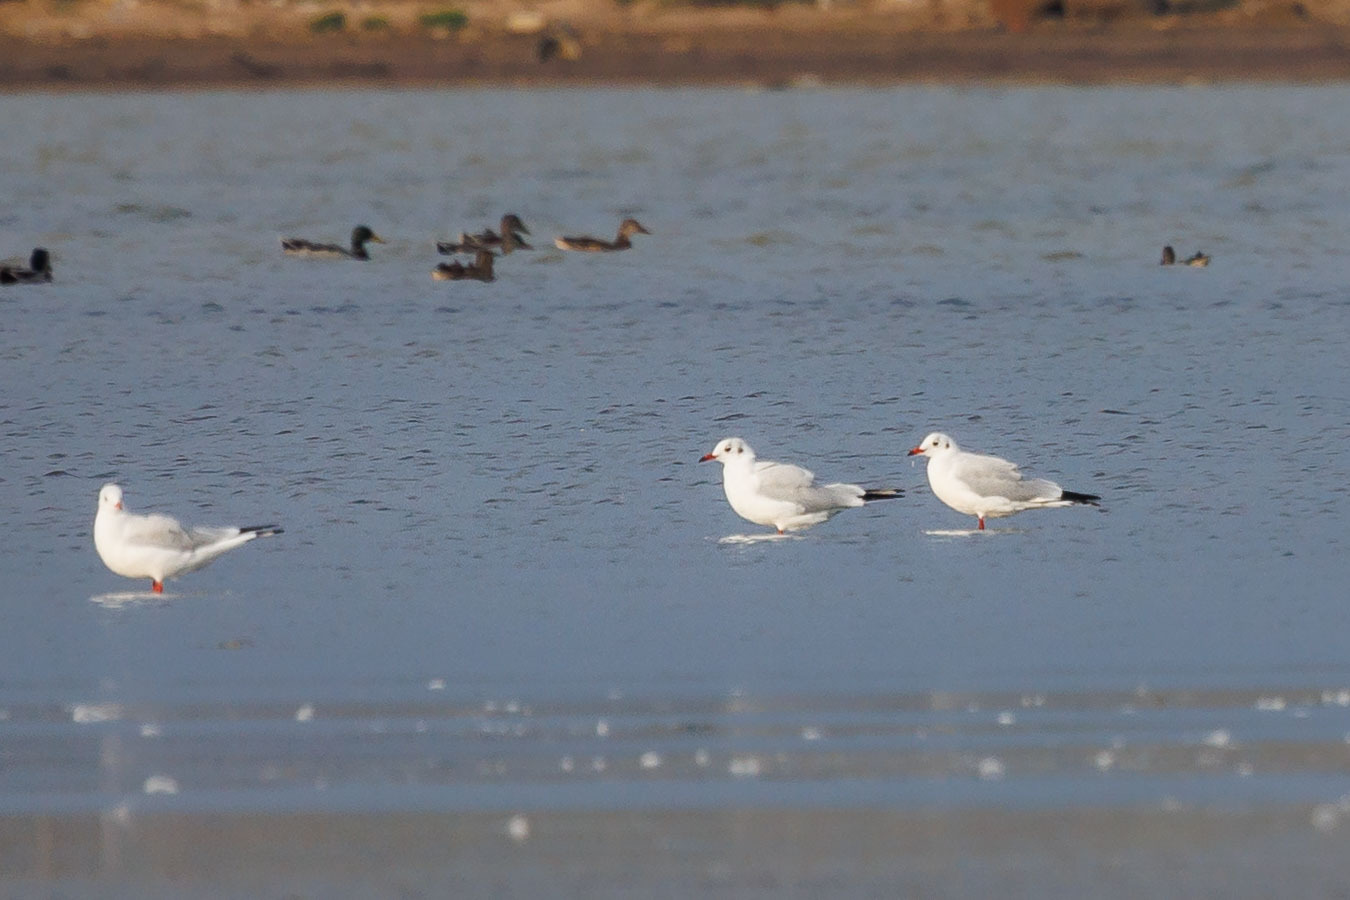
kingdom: Animalia
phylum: Chordata
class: Aves
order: Charadriiformes
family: Laridae
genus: Chroicocephalus
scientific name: Chroicocephalus ridibundus
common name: Black-headed gull
